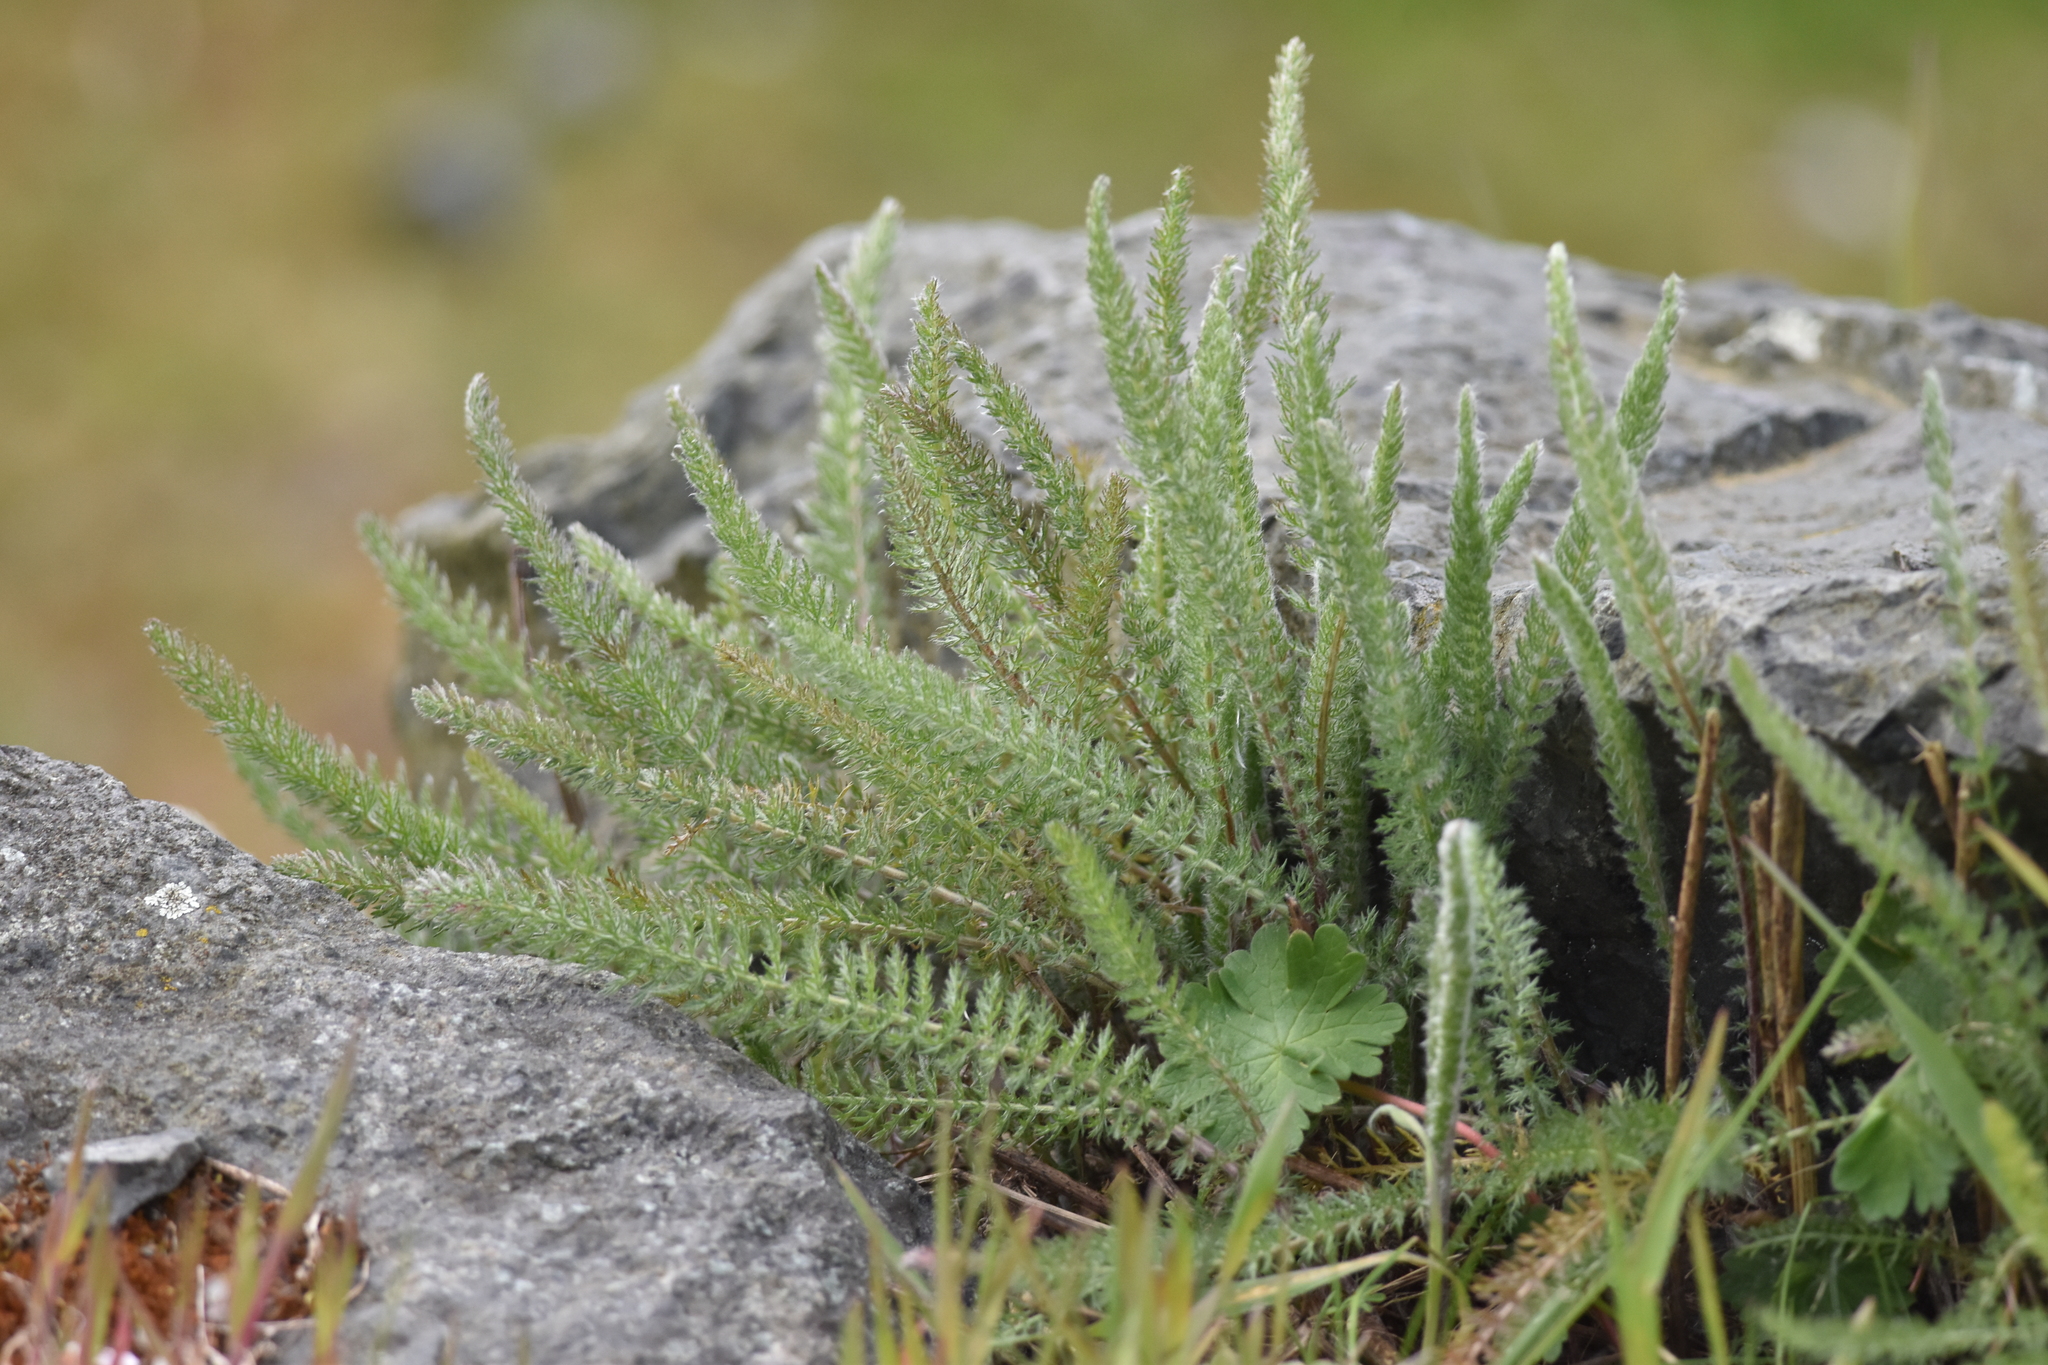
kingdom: Plantae
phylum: Tracheophyta
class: Magnoliopsida
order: Asterales
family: Asteraceae
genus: Achillea
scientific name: Achillea millefolium
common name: Yarrow
